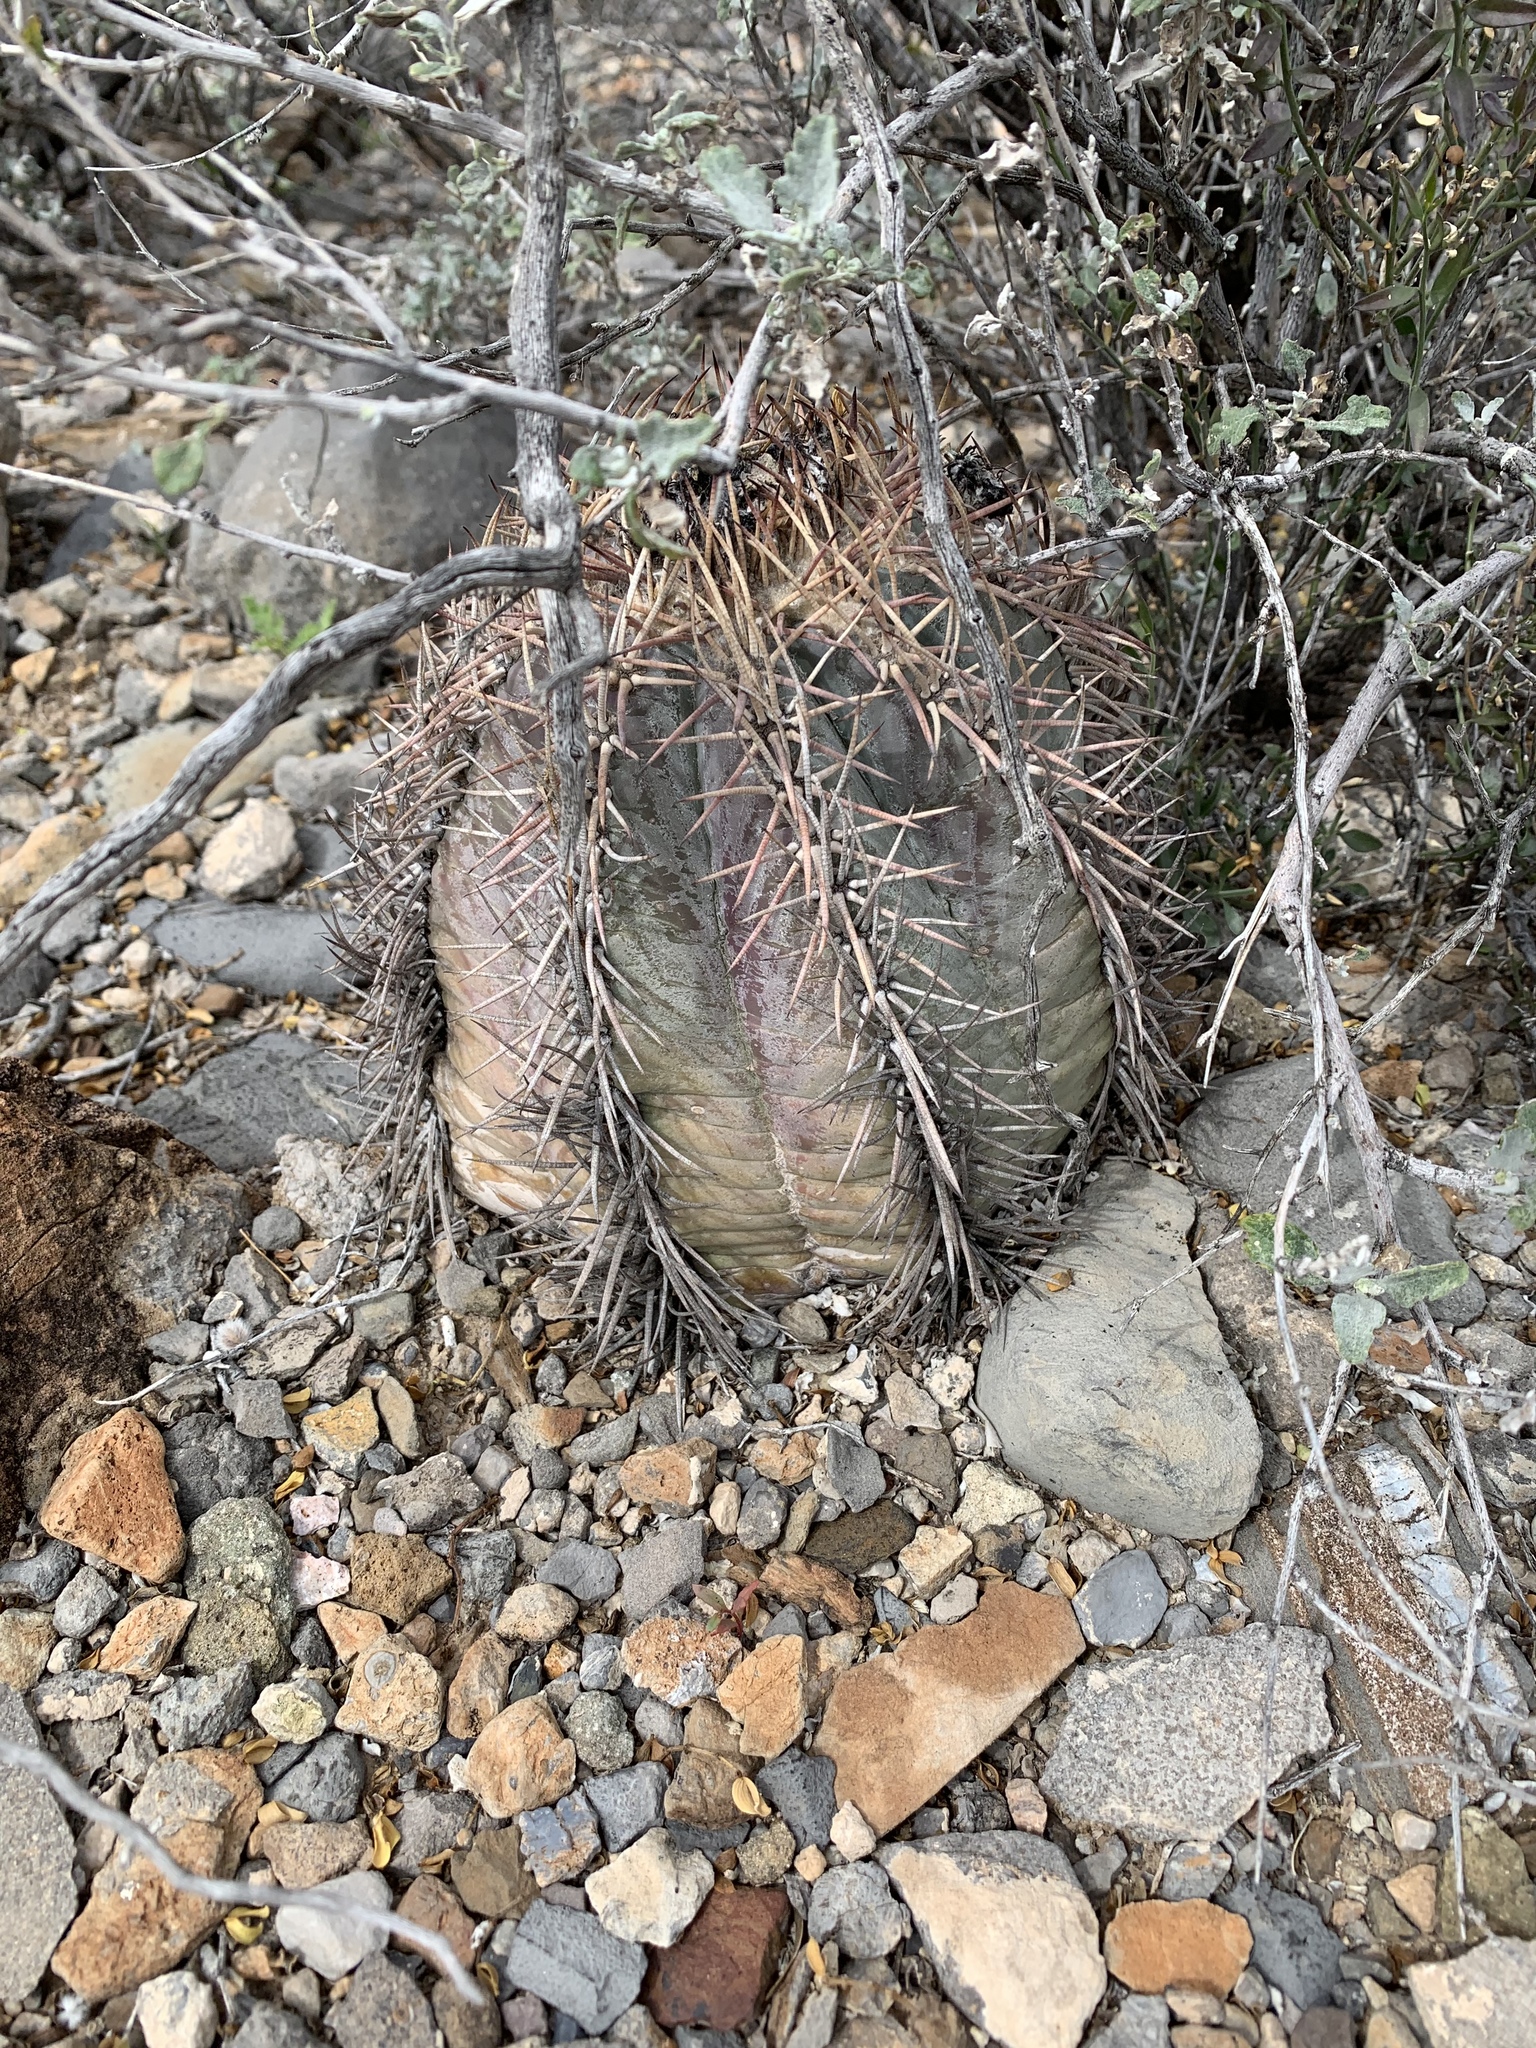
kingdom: Plantae
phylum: Tracheophyta
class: Magnoliopsida
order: Caryophyllales
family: Cactaceae
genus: Echinocactus
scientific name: Echinocactus horizonthalonius
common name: Devilshead
